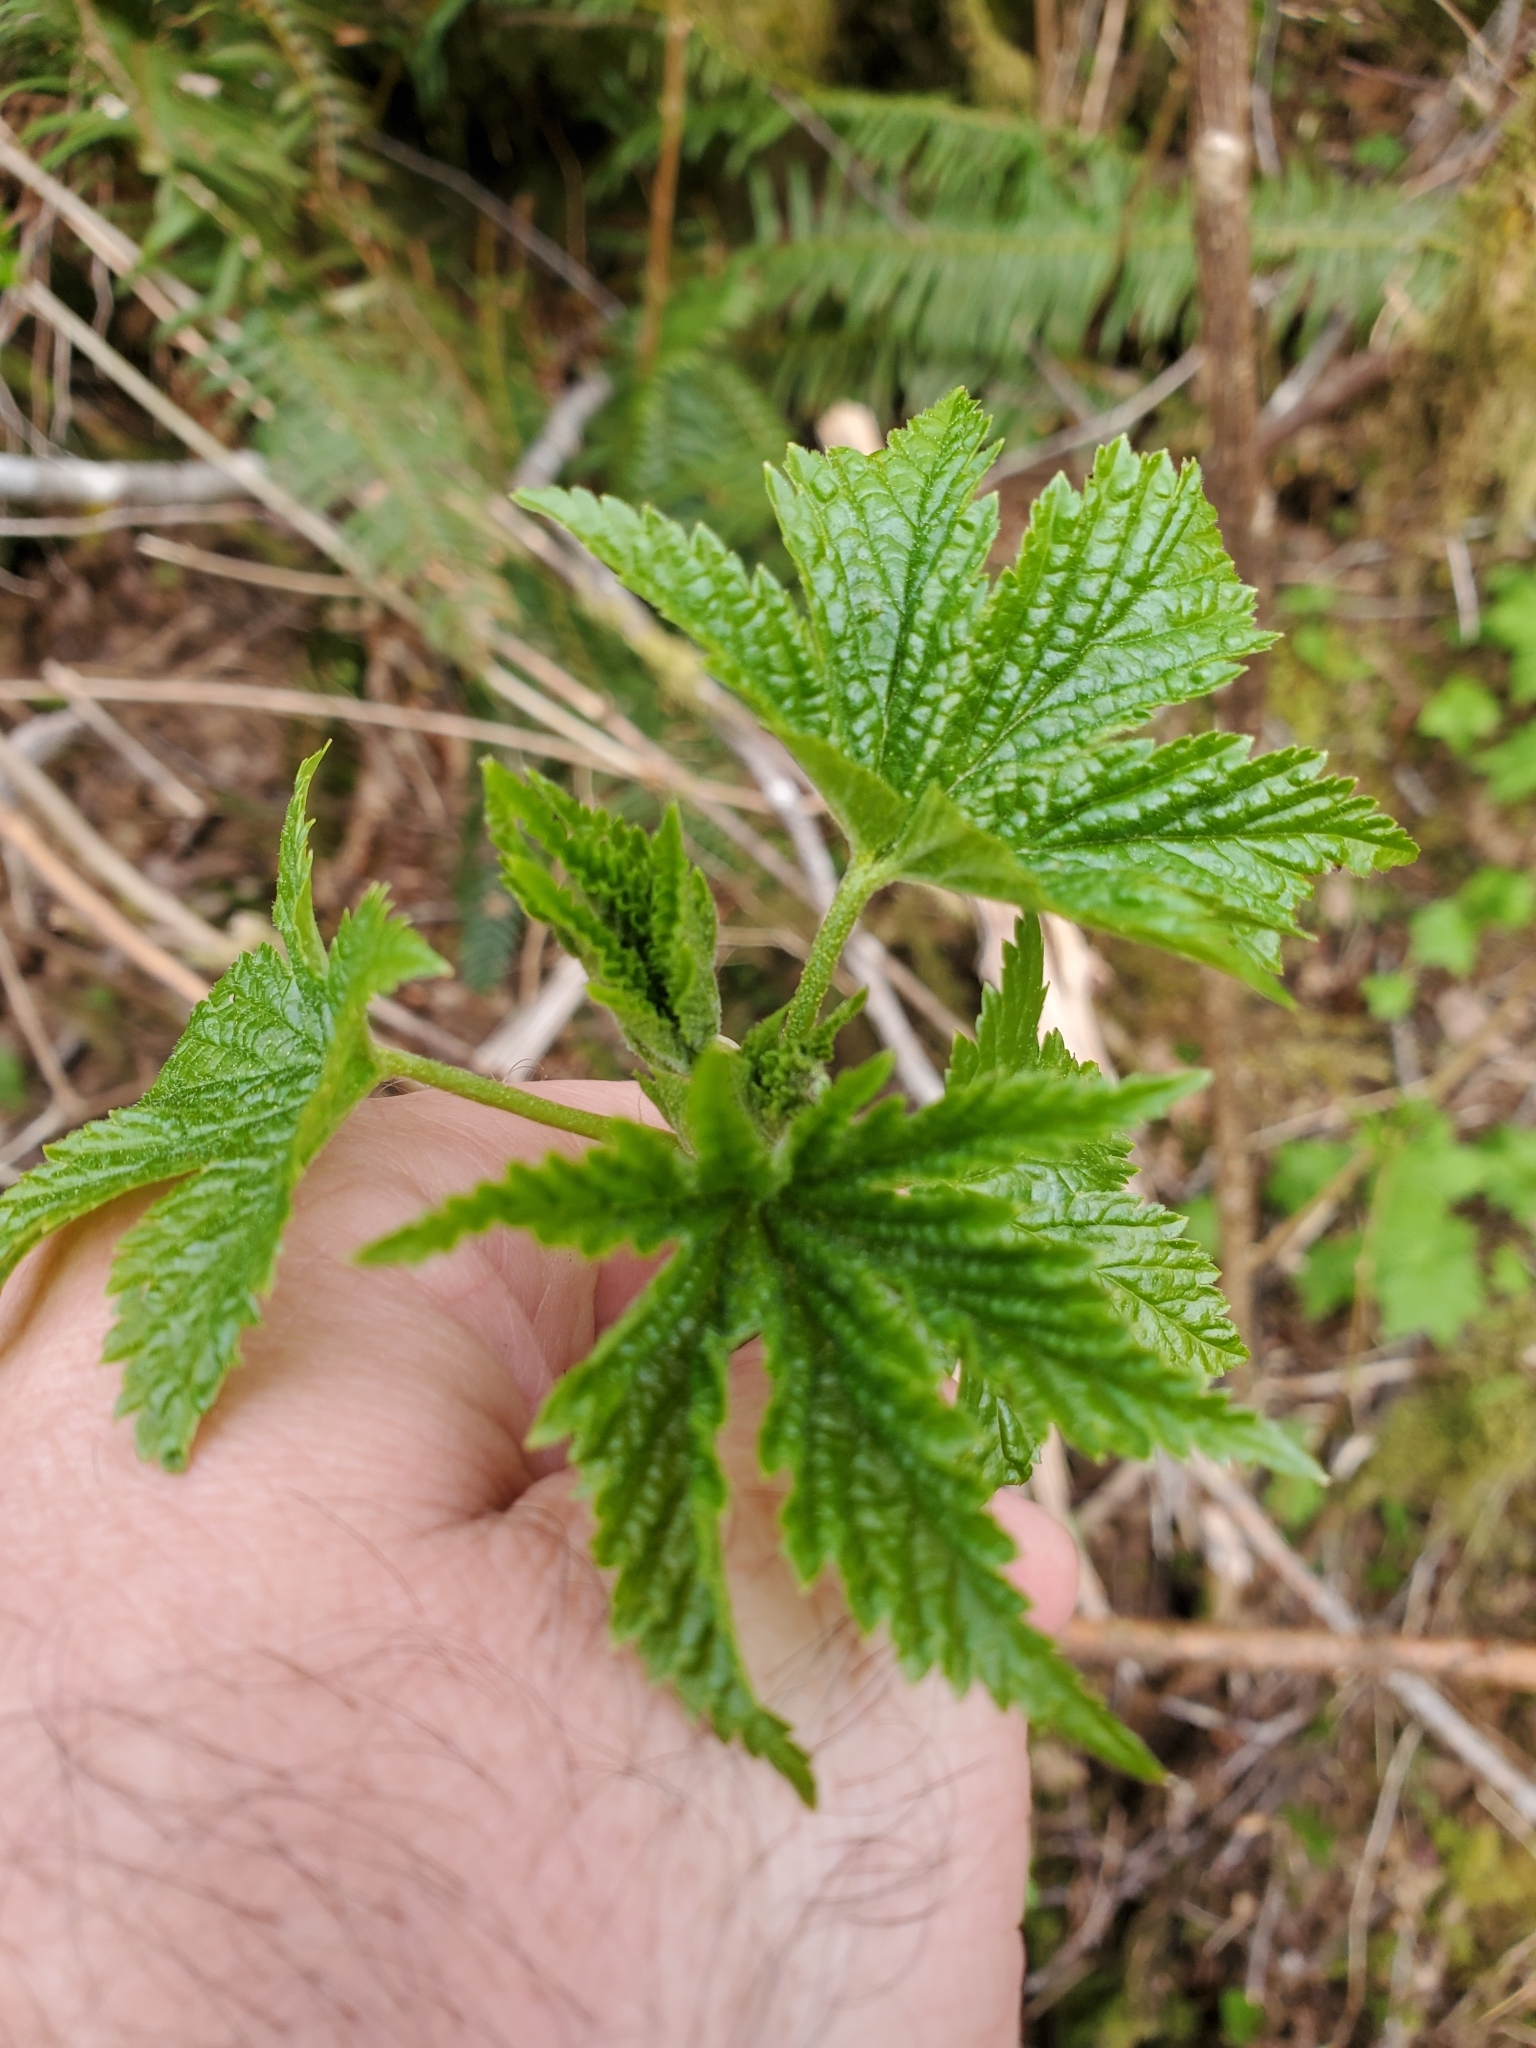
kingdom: Plantae
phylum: Tracheophyta
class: Magnoliopsida
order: Saxifragales
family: Grossulariaceae
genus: Ribes
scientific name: Ribes bracteosum
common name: California black currant
